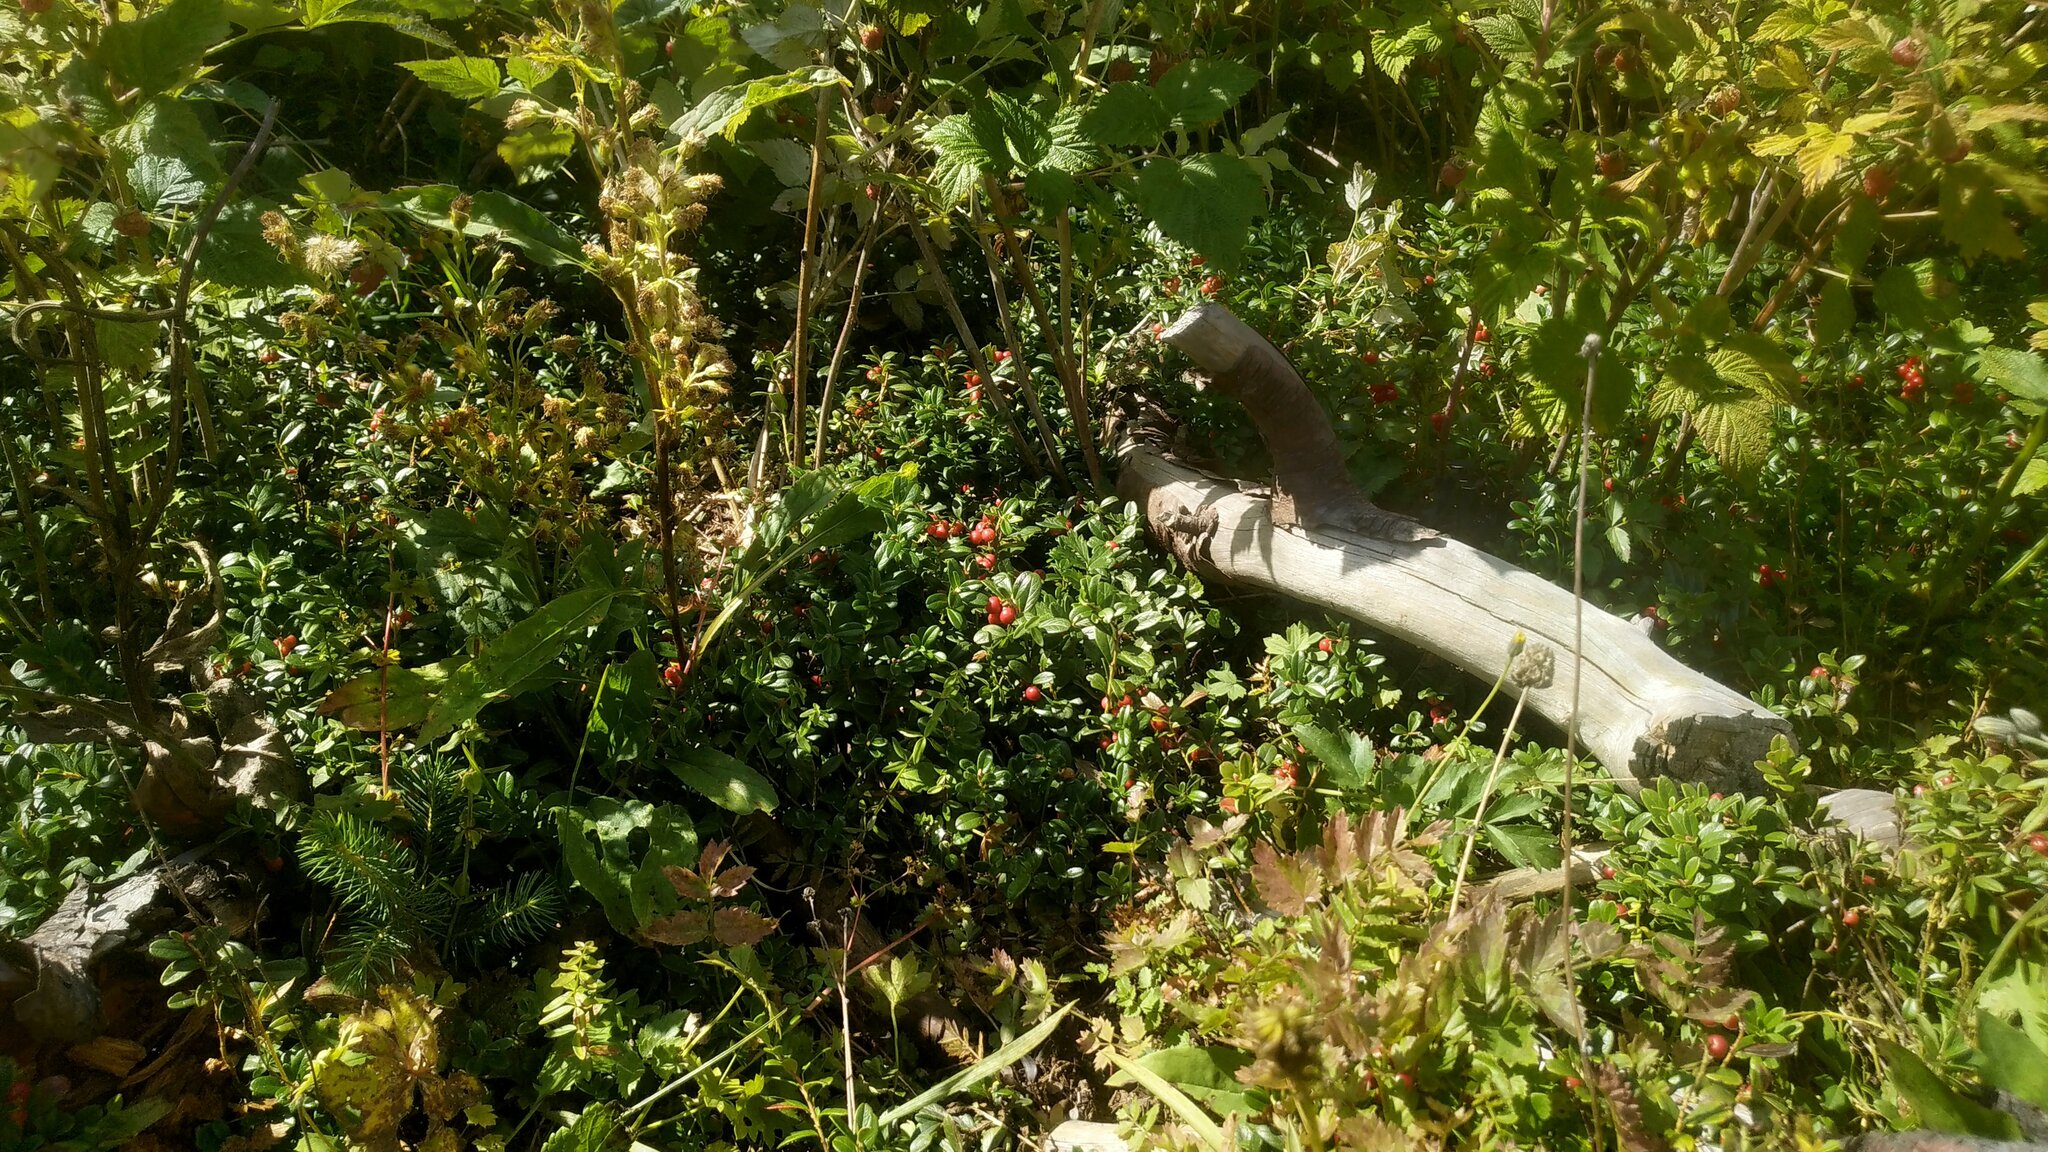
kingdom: Plantae
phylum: Tracheophyta
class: Magnoliopsida
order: Ericales
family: Ericaceae
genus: Vaccinium
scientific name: Vaccinium vitis-idaea
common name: Cowberry
